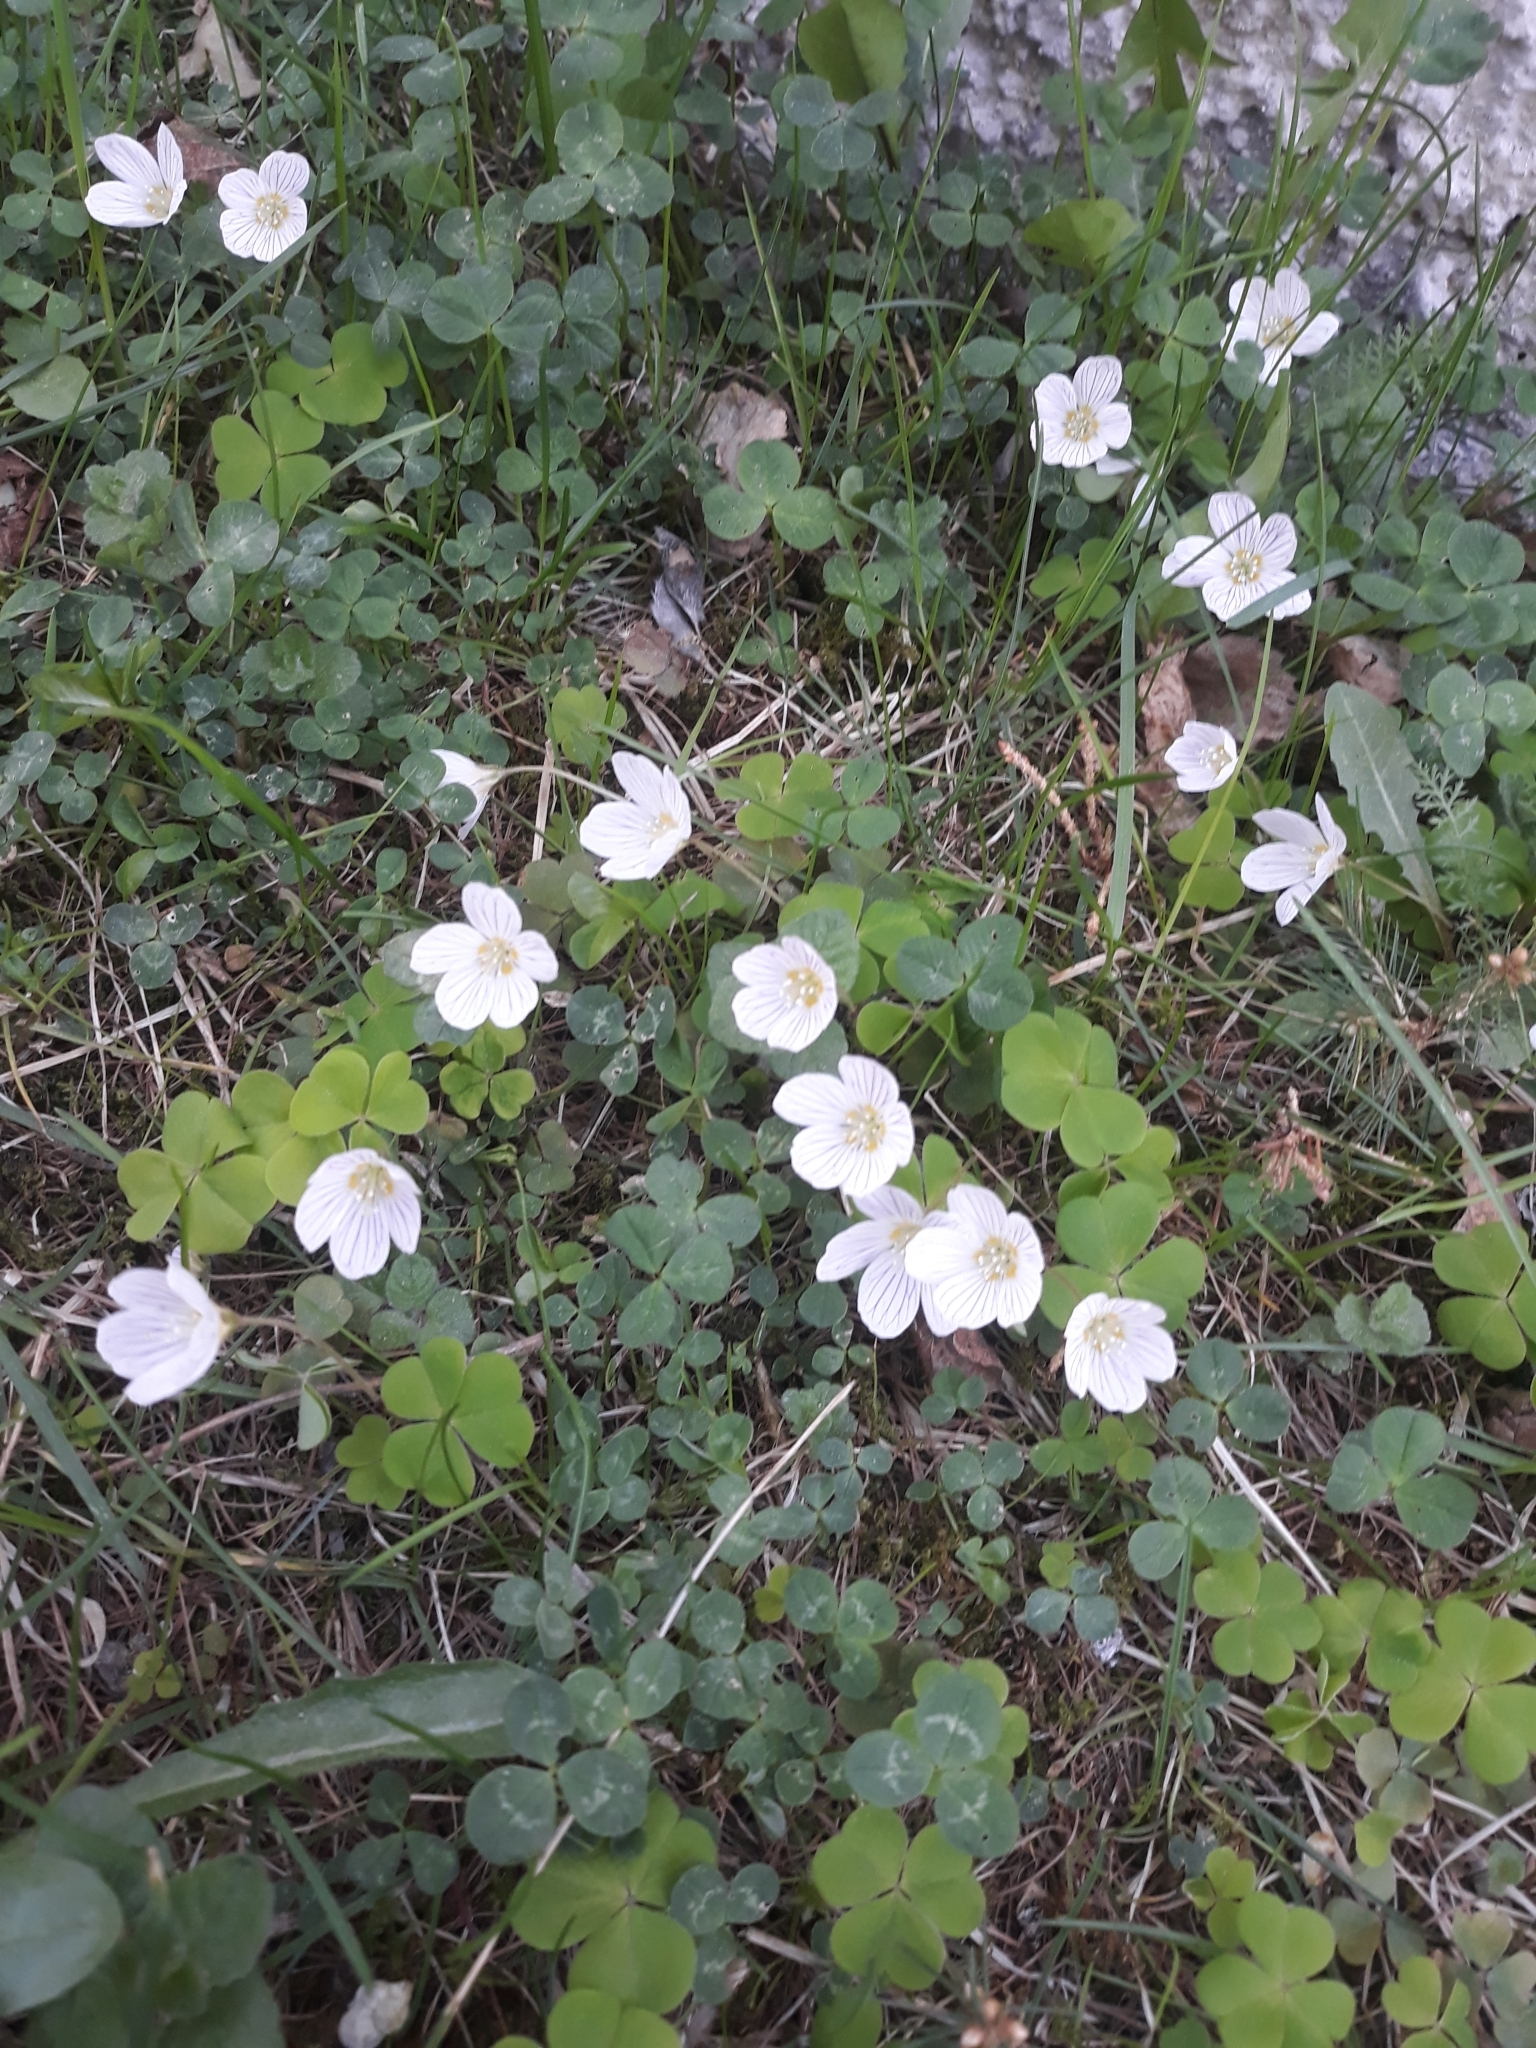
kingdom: Plantae
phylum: Tracheophyta
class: Magnoliopsida
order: Oxalidales
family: Oxalidaceae
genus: Oxalis
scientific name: Oxalis acetosella
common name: Wood-sorrel
